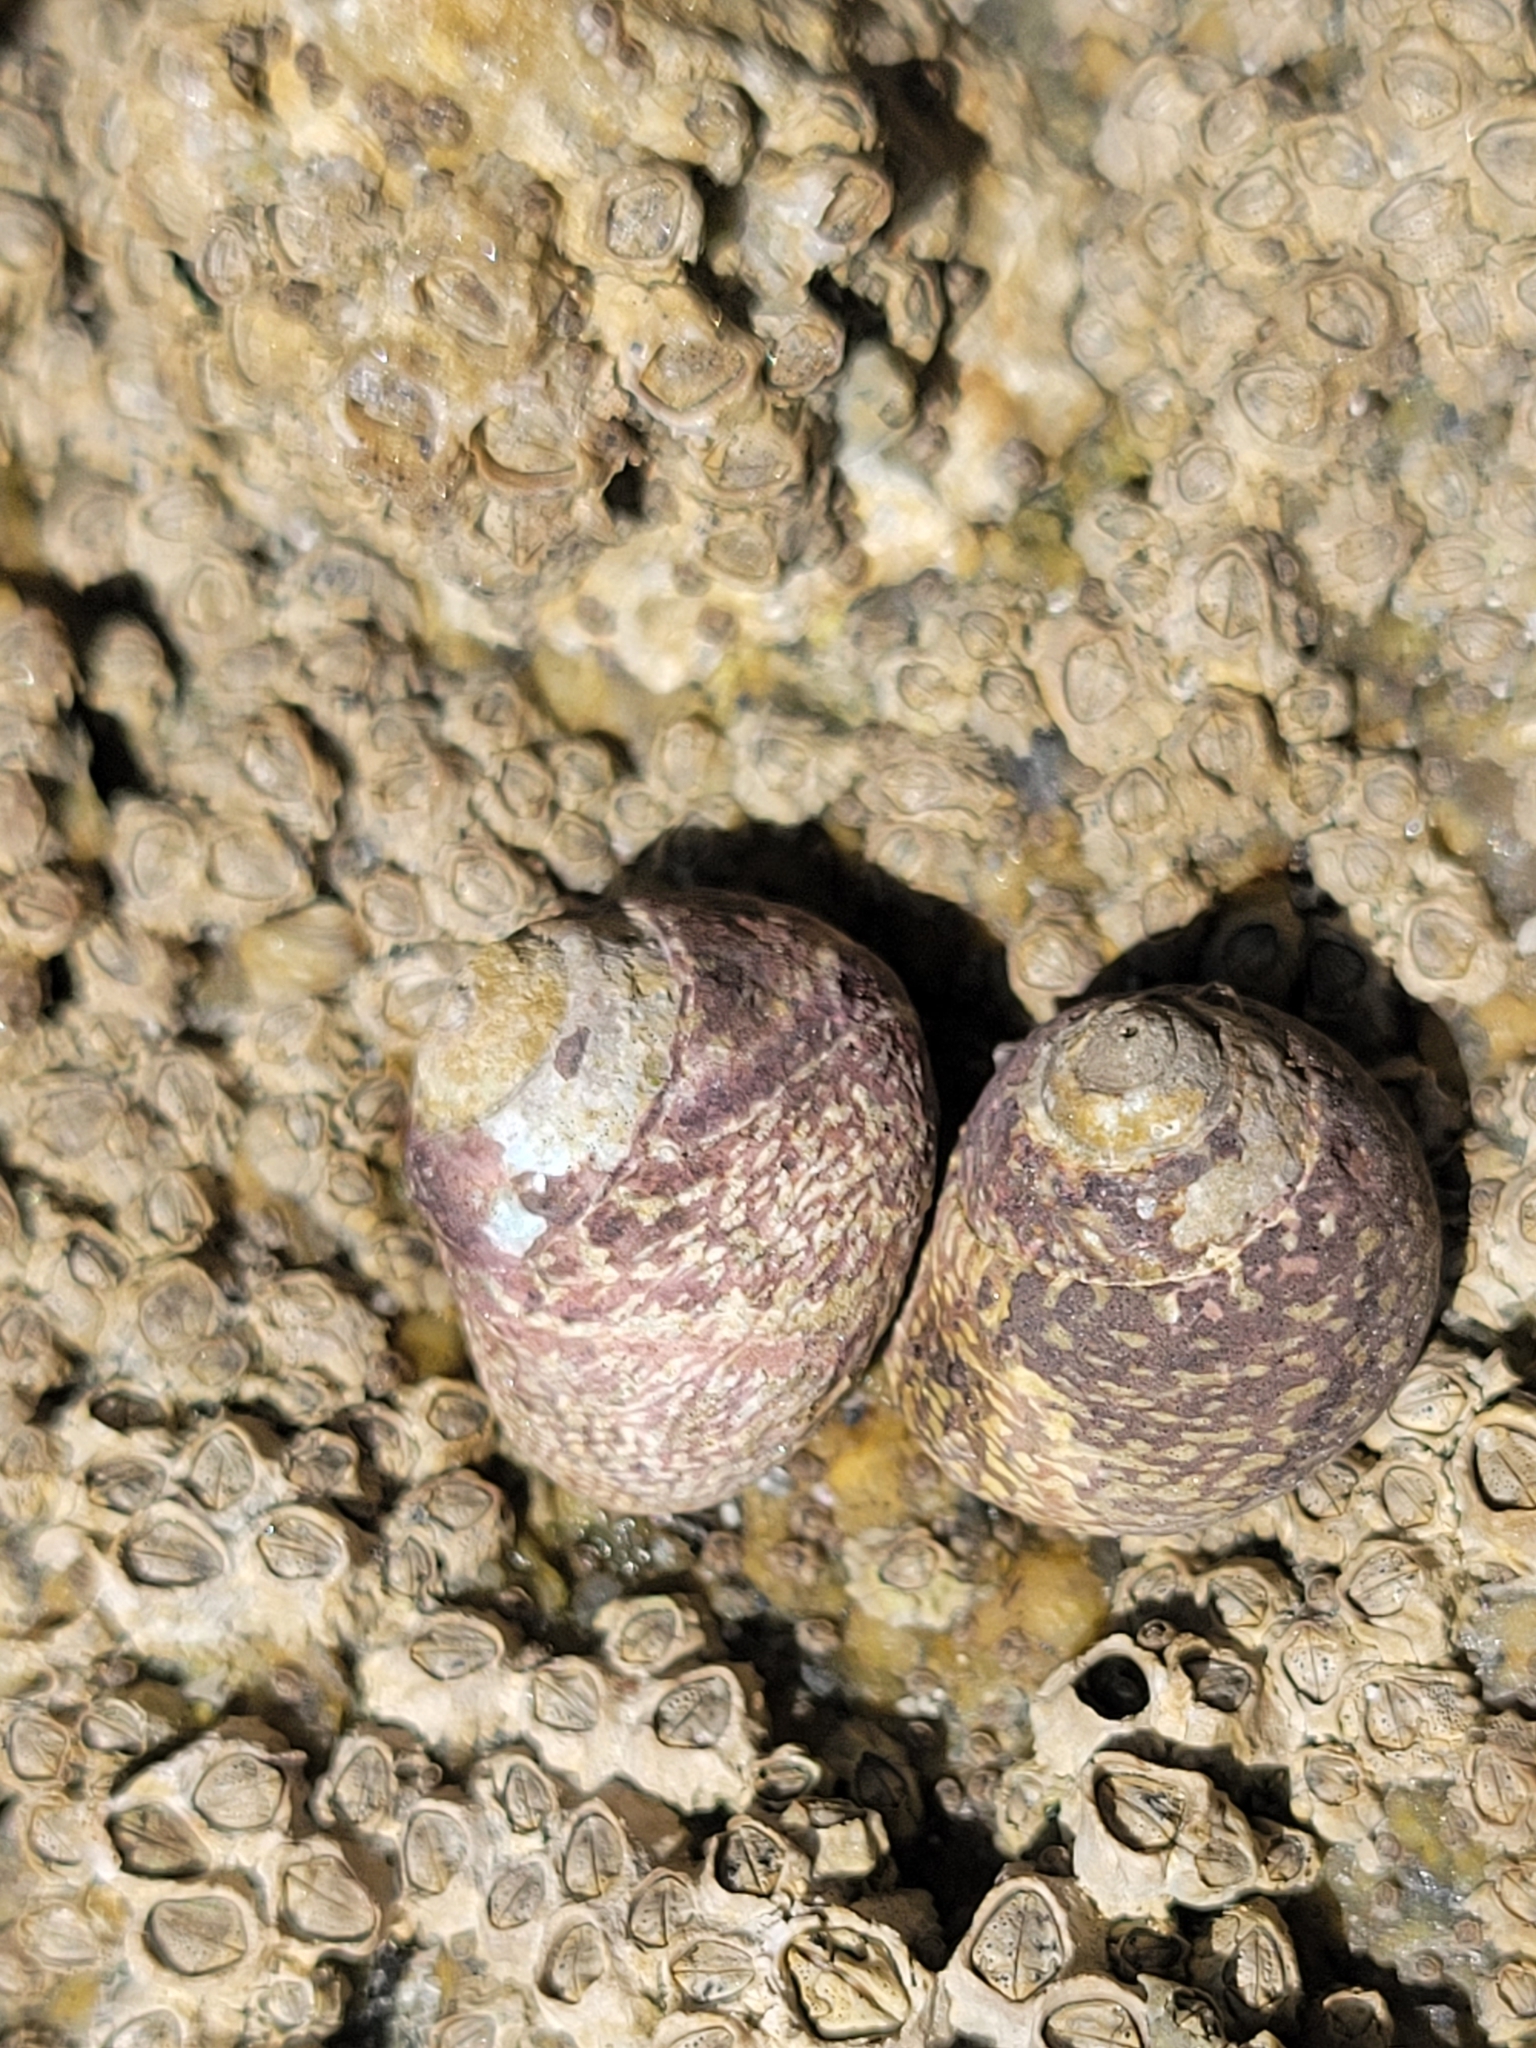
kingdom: Animalia
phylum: Mollusca
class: Gastropoda
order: Trochida
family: Trochidae
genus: Phorcus
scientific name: Phorcus lineatus
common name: Toothed top shell
